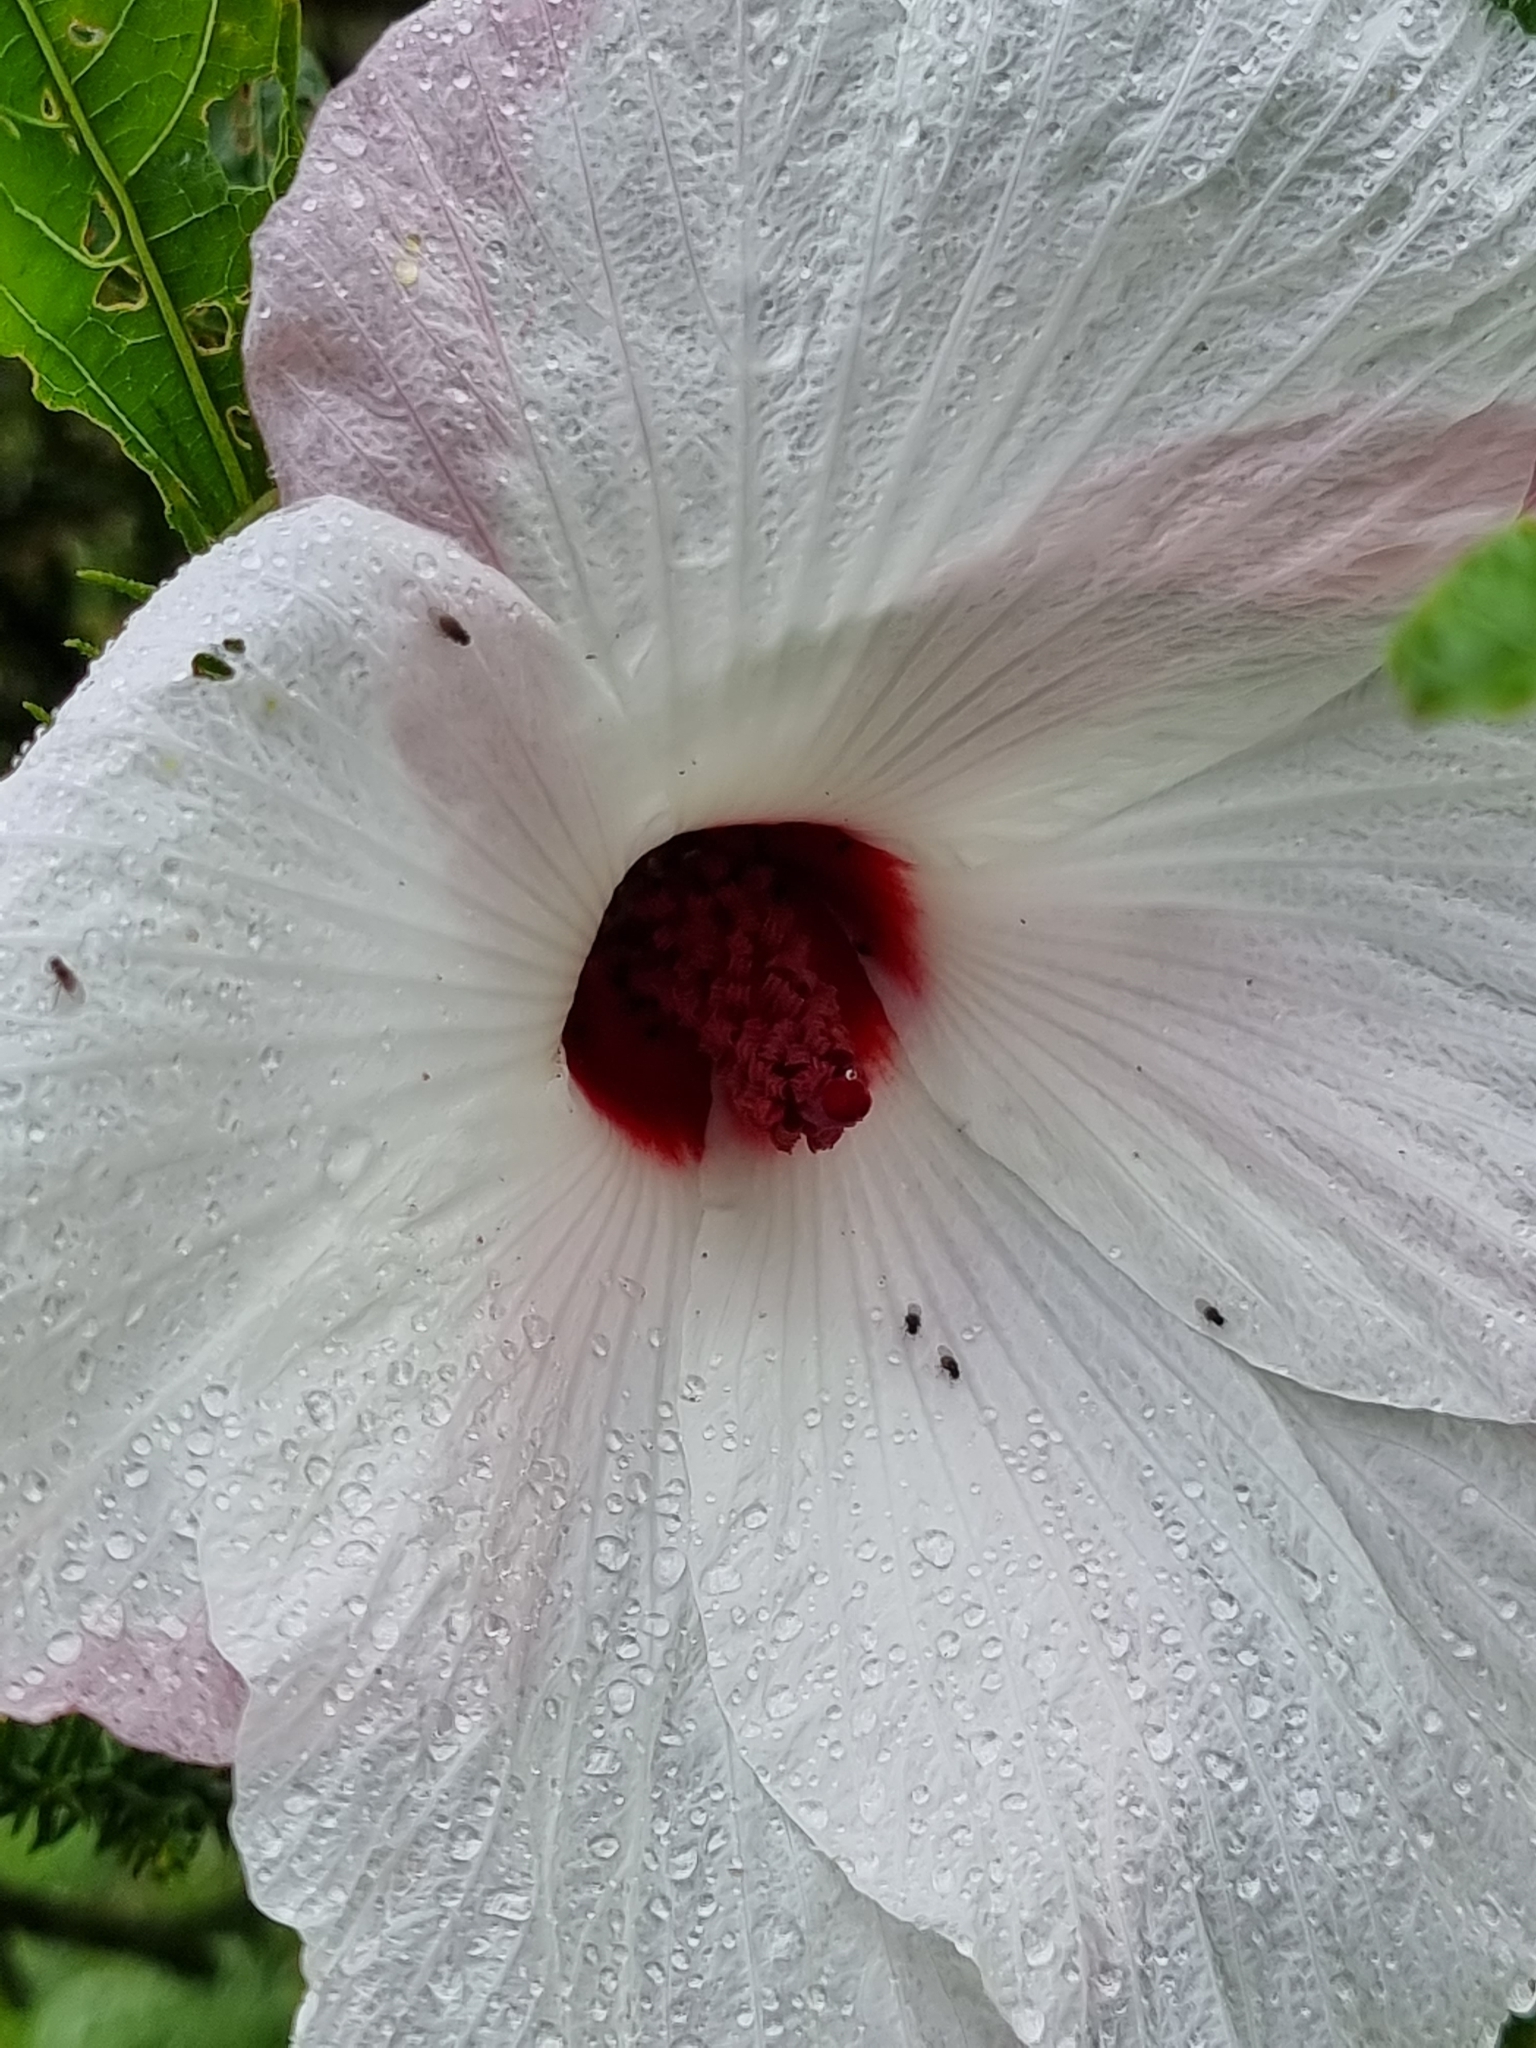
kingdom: Plantae
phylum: Tracheophyta
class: Magnoliopsida
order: Malvales
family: Malvaceae
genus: Hibiscus
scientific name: Hibiscus heterophyllus
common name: Queensland-sorrel
